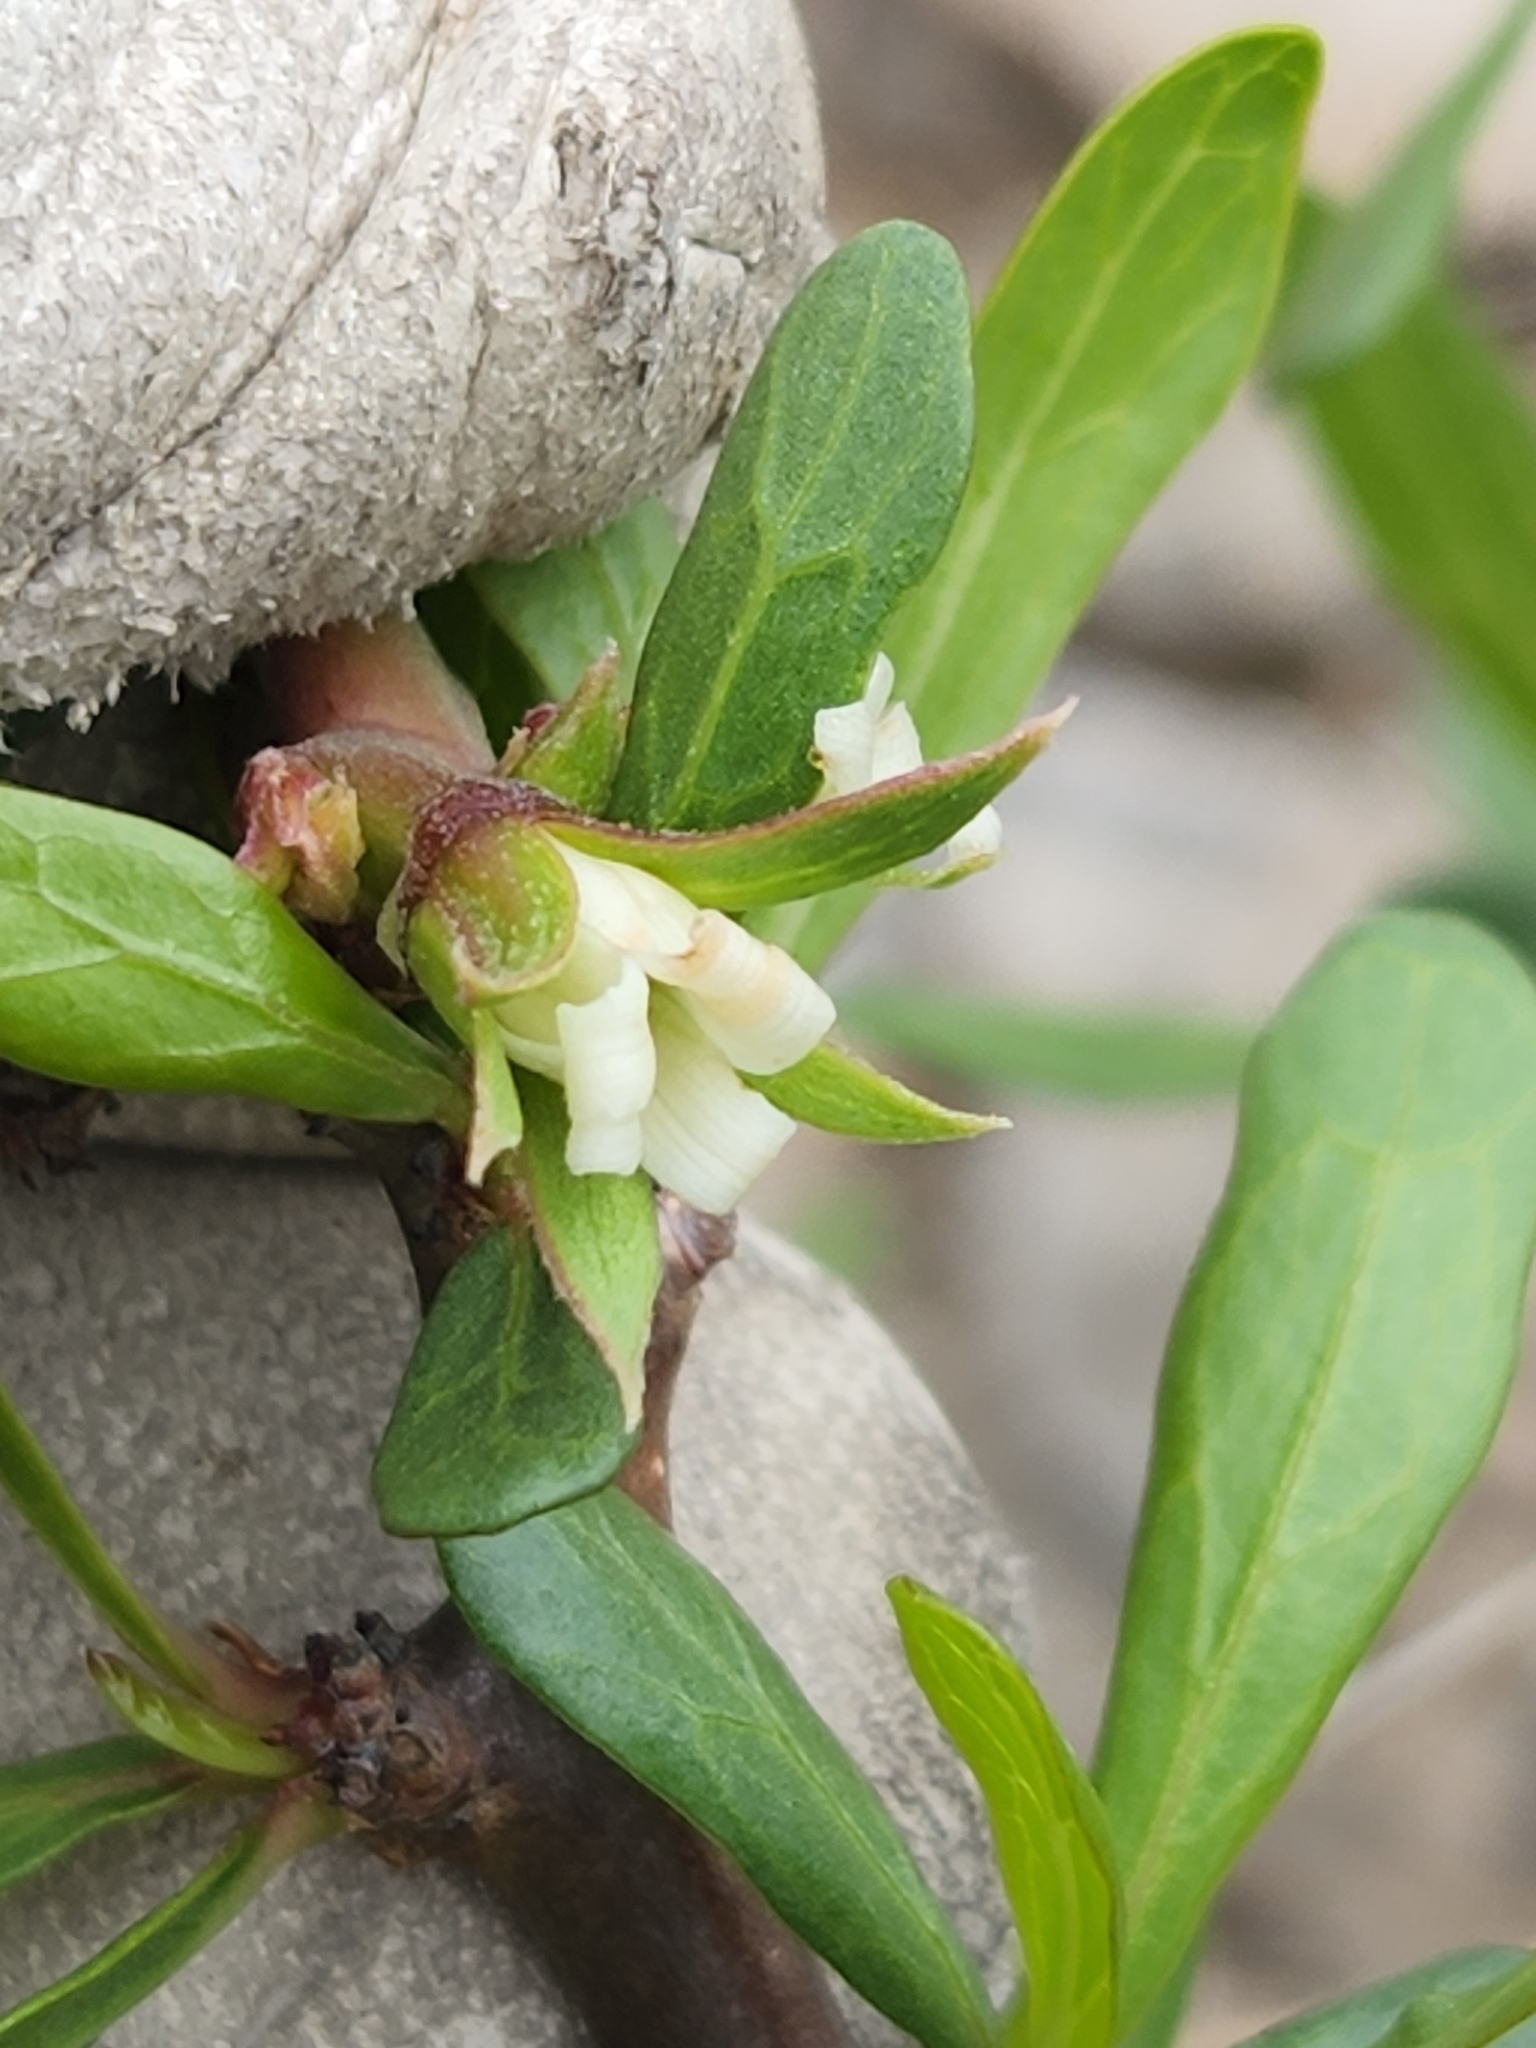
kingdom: Plantae
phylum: Tracheophyta
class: Magnoliopsida
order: Malpighiales
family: Euphorbiaceae
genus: Jatropha
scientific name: Jatropha dioica
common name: Leatherstem
